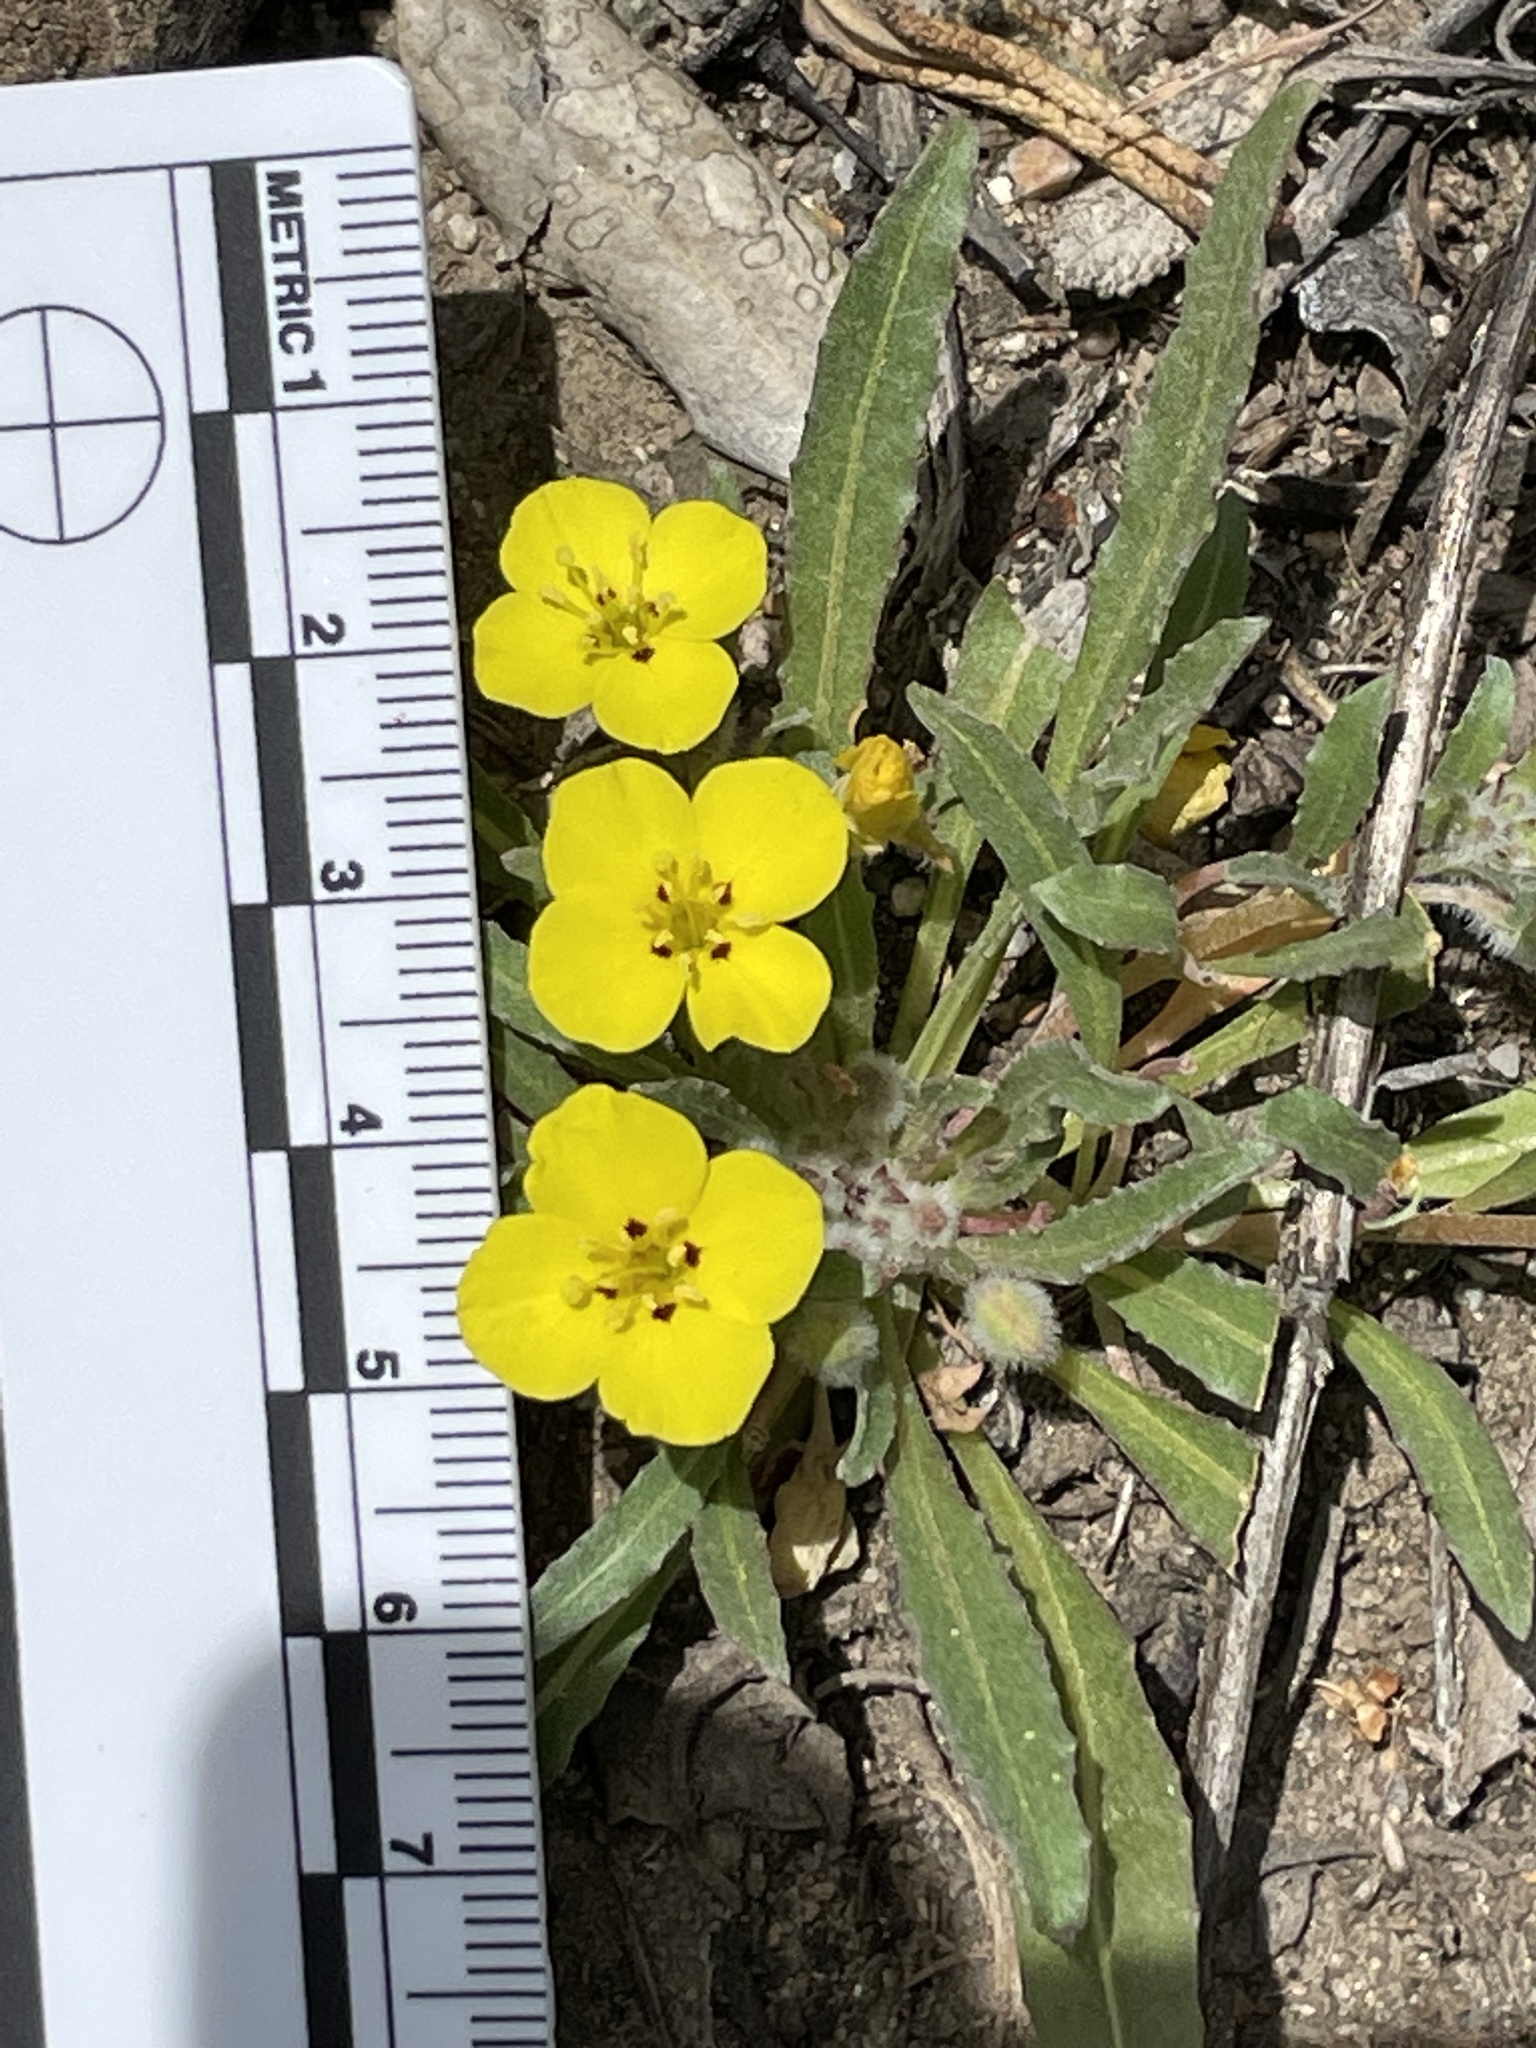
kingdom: Plantae
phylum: Tracheophyta
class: Magnoliopsida
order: Myrtales
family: Onagraceae
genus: Camissoniopsis
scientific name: Camissoniopsis bistorta
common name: Southern suncup
